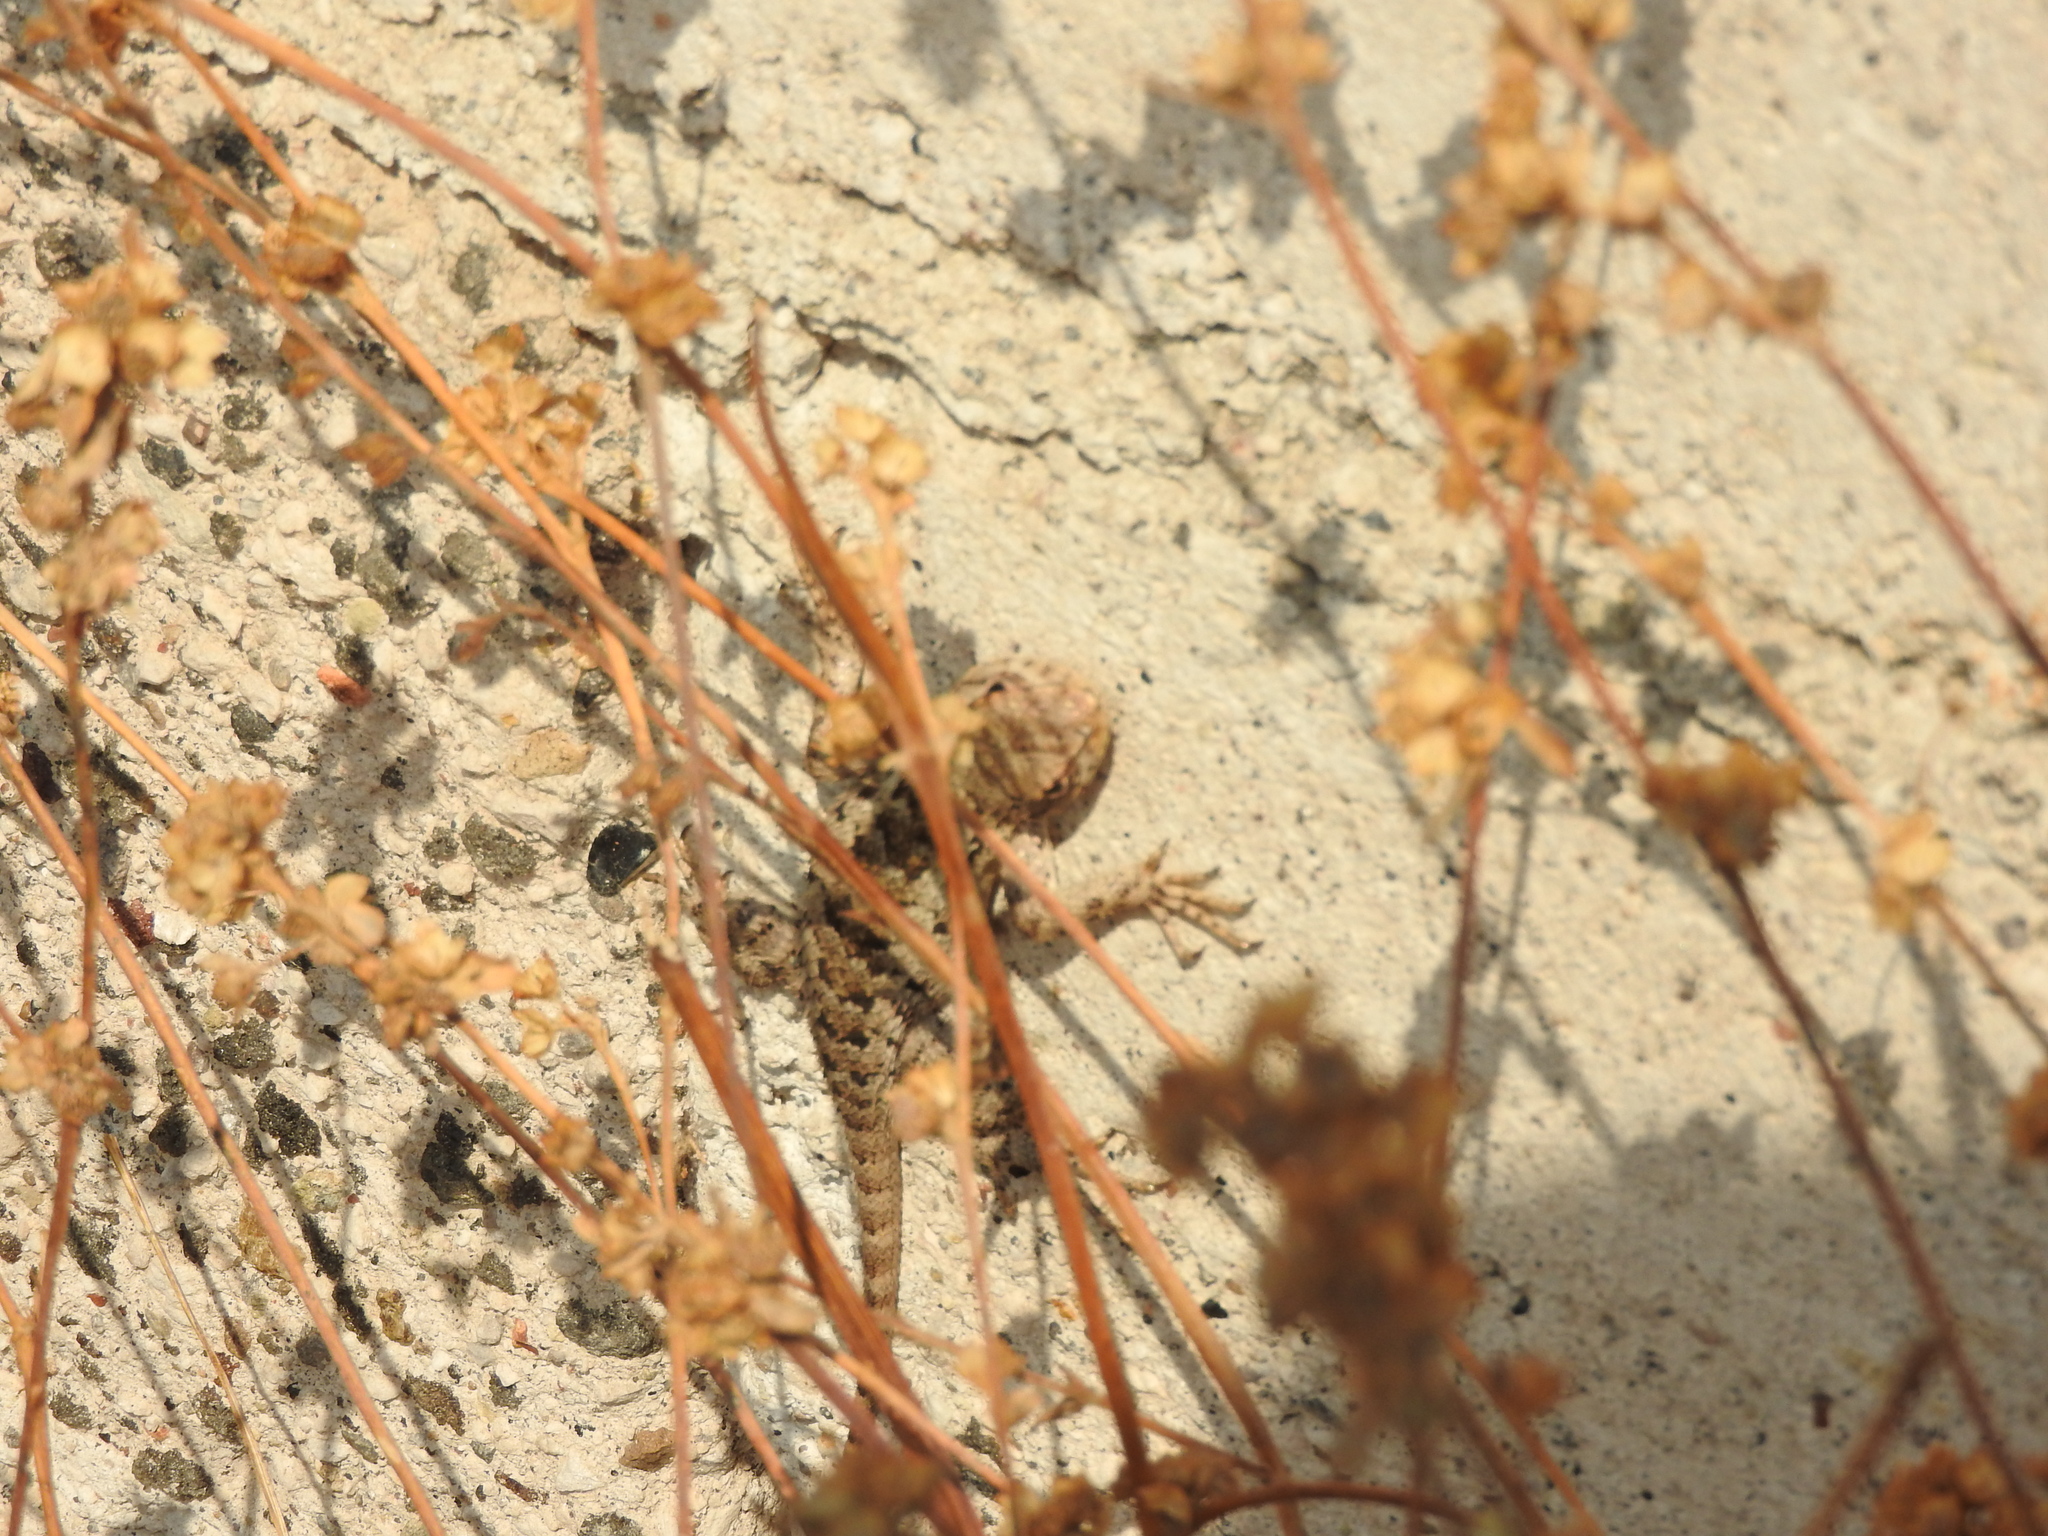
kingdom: Animalia
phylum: Chordata
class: Squamata
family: Phrynosomatidae
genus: Sceloporus
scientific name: Sceloporus spinosus
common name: Blue-spotted spiny lizard [caeruleopunctatus]
